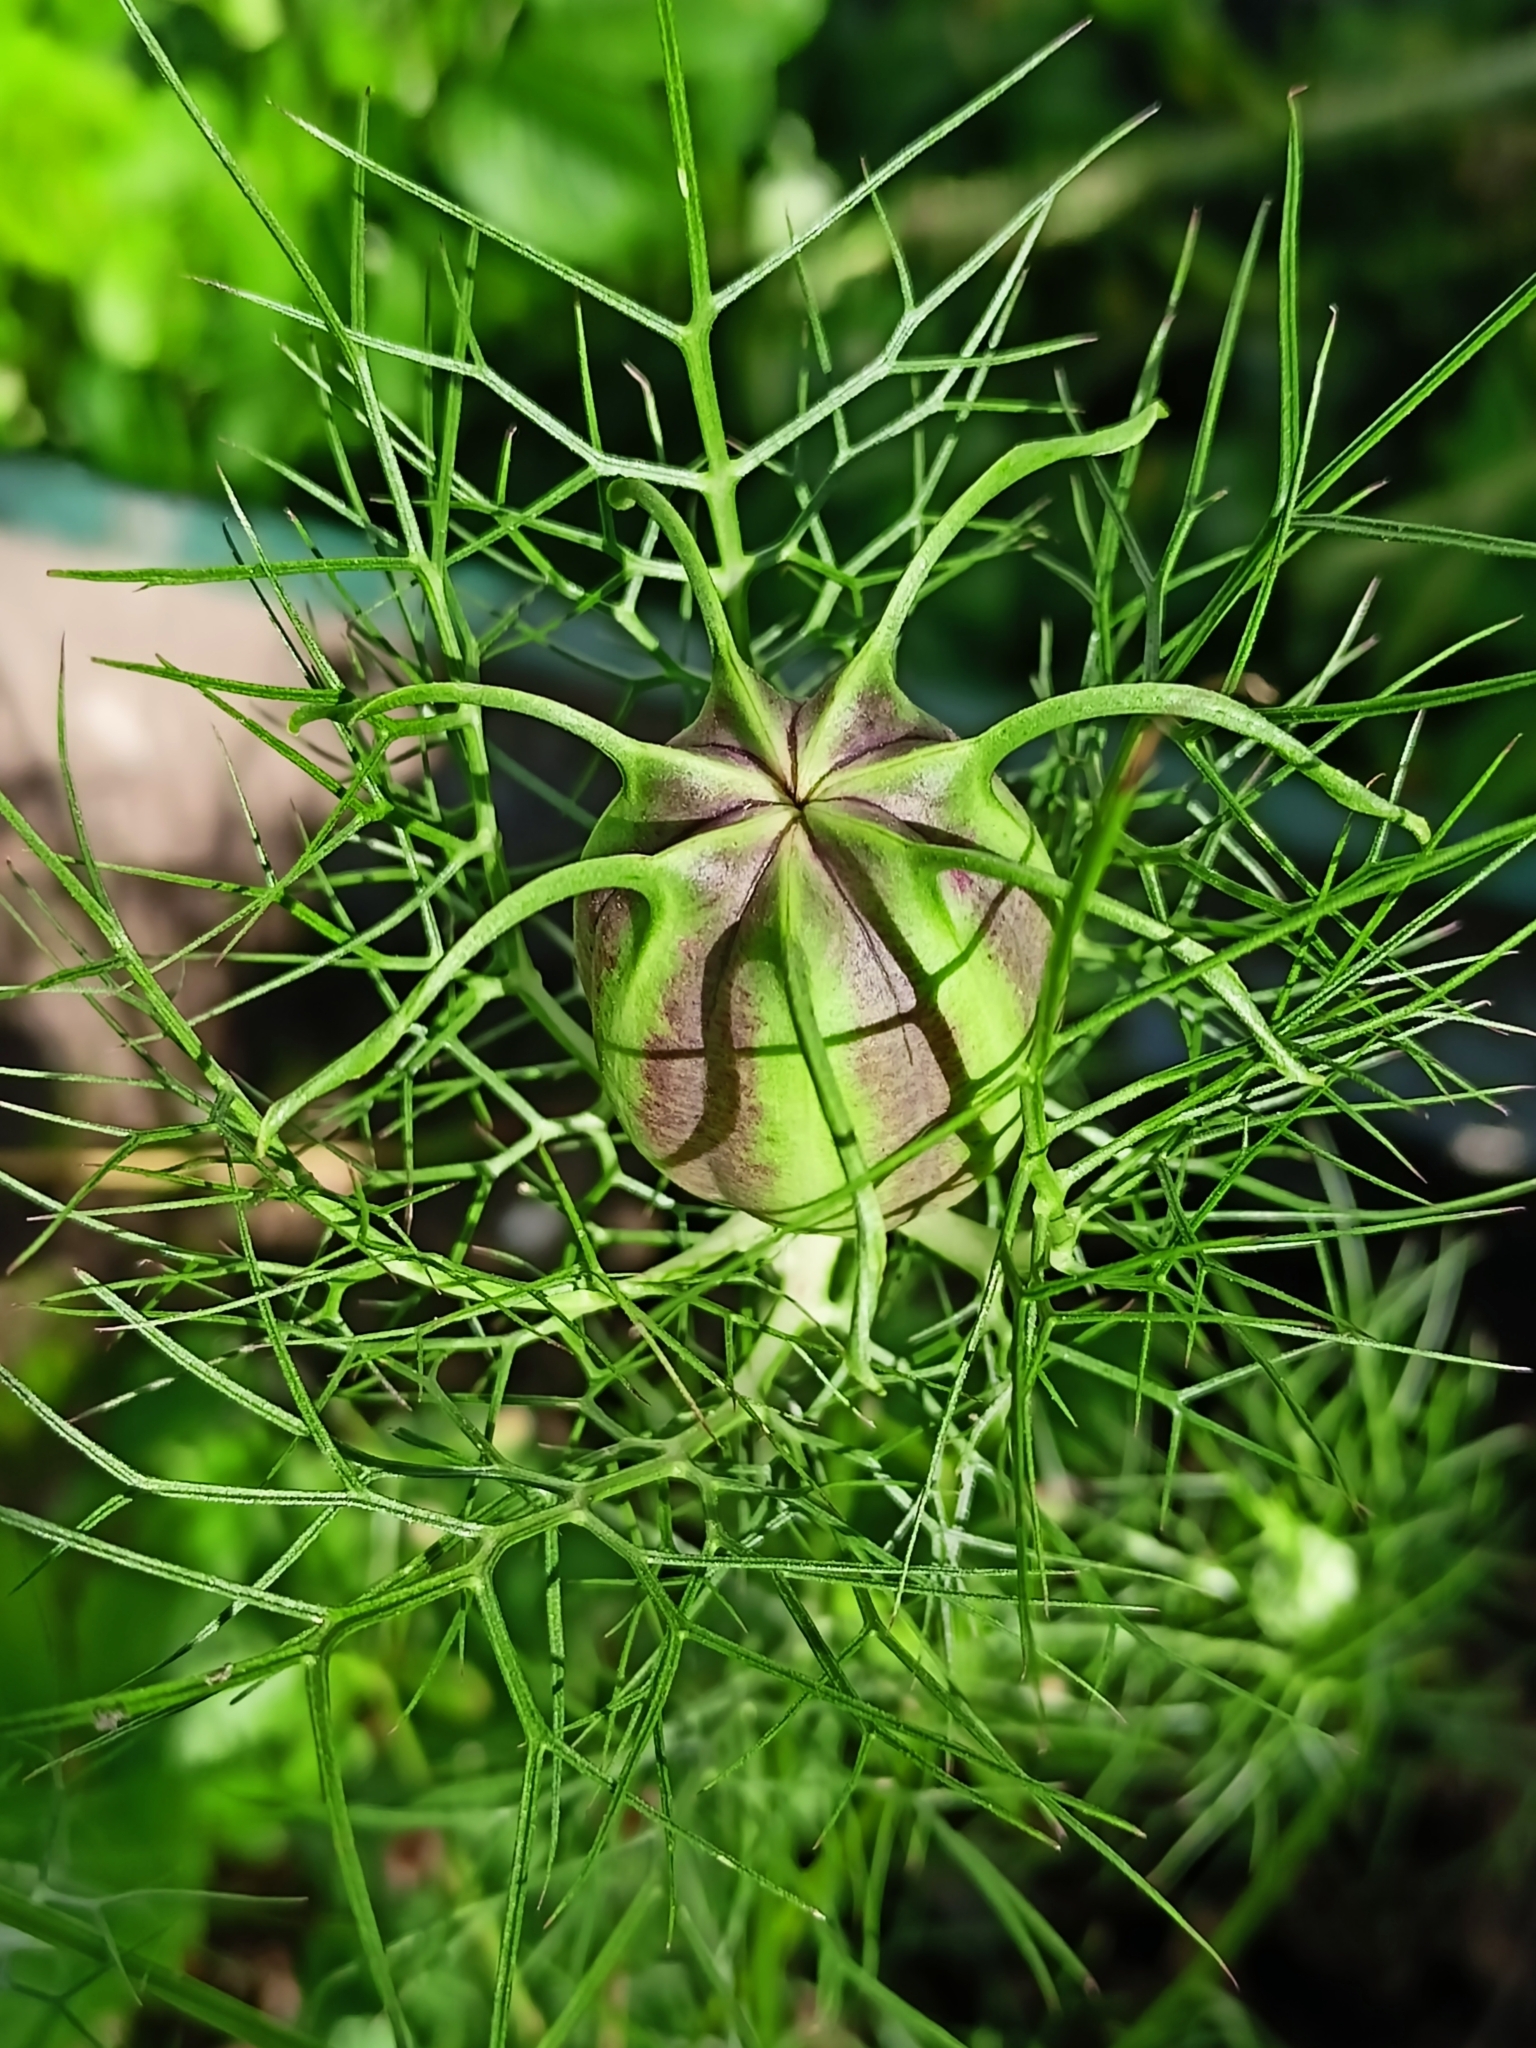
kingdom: Plantae
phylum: Tracheophyta
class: Magnoliopsida
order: Ranunculales
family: Ranunculaceae
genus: Nigella
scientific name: Nigella damascena
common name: Love-in-a-mist
